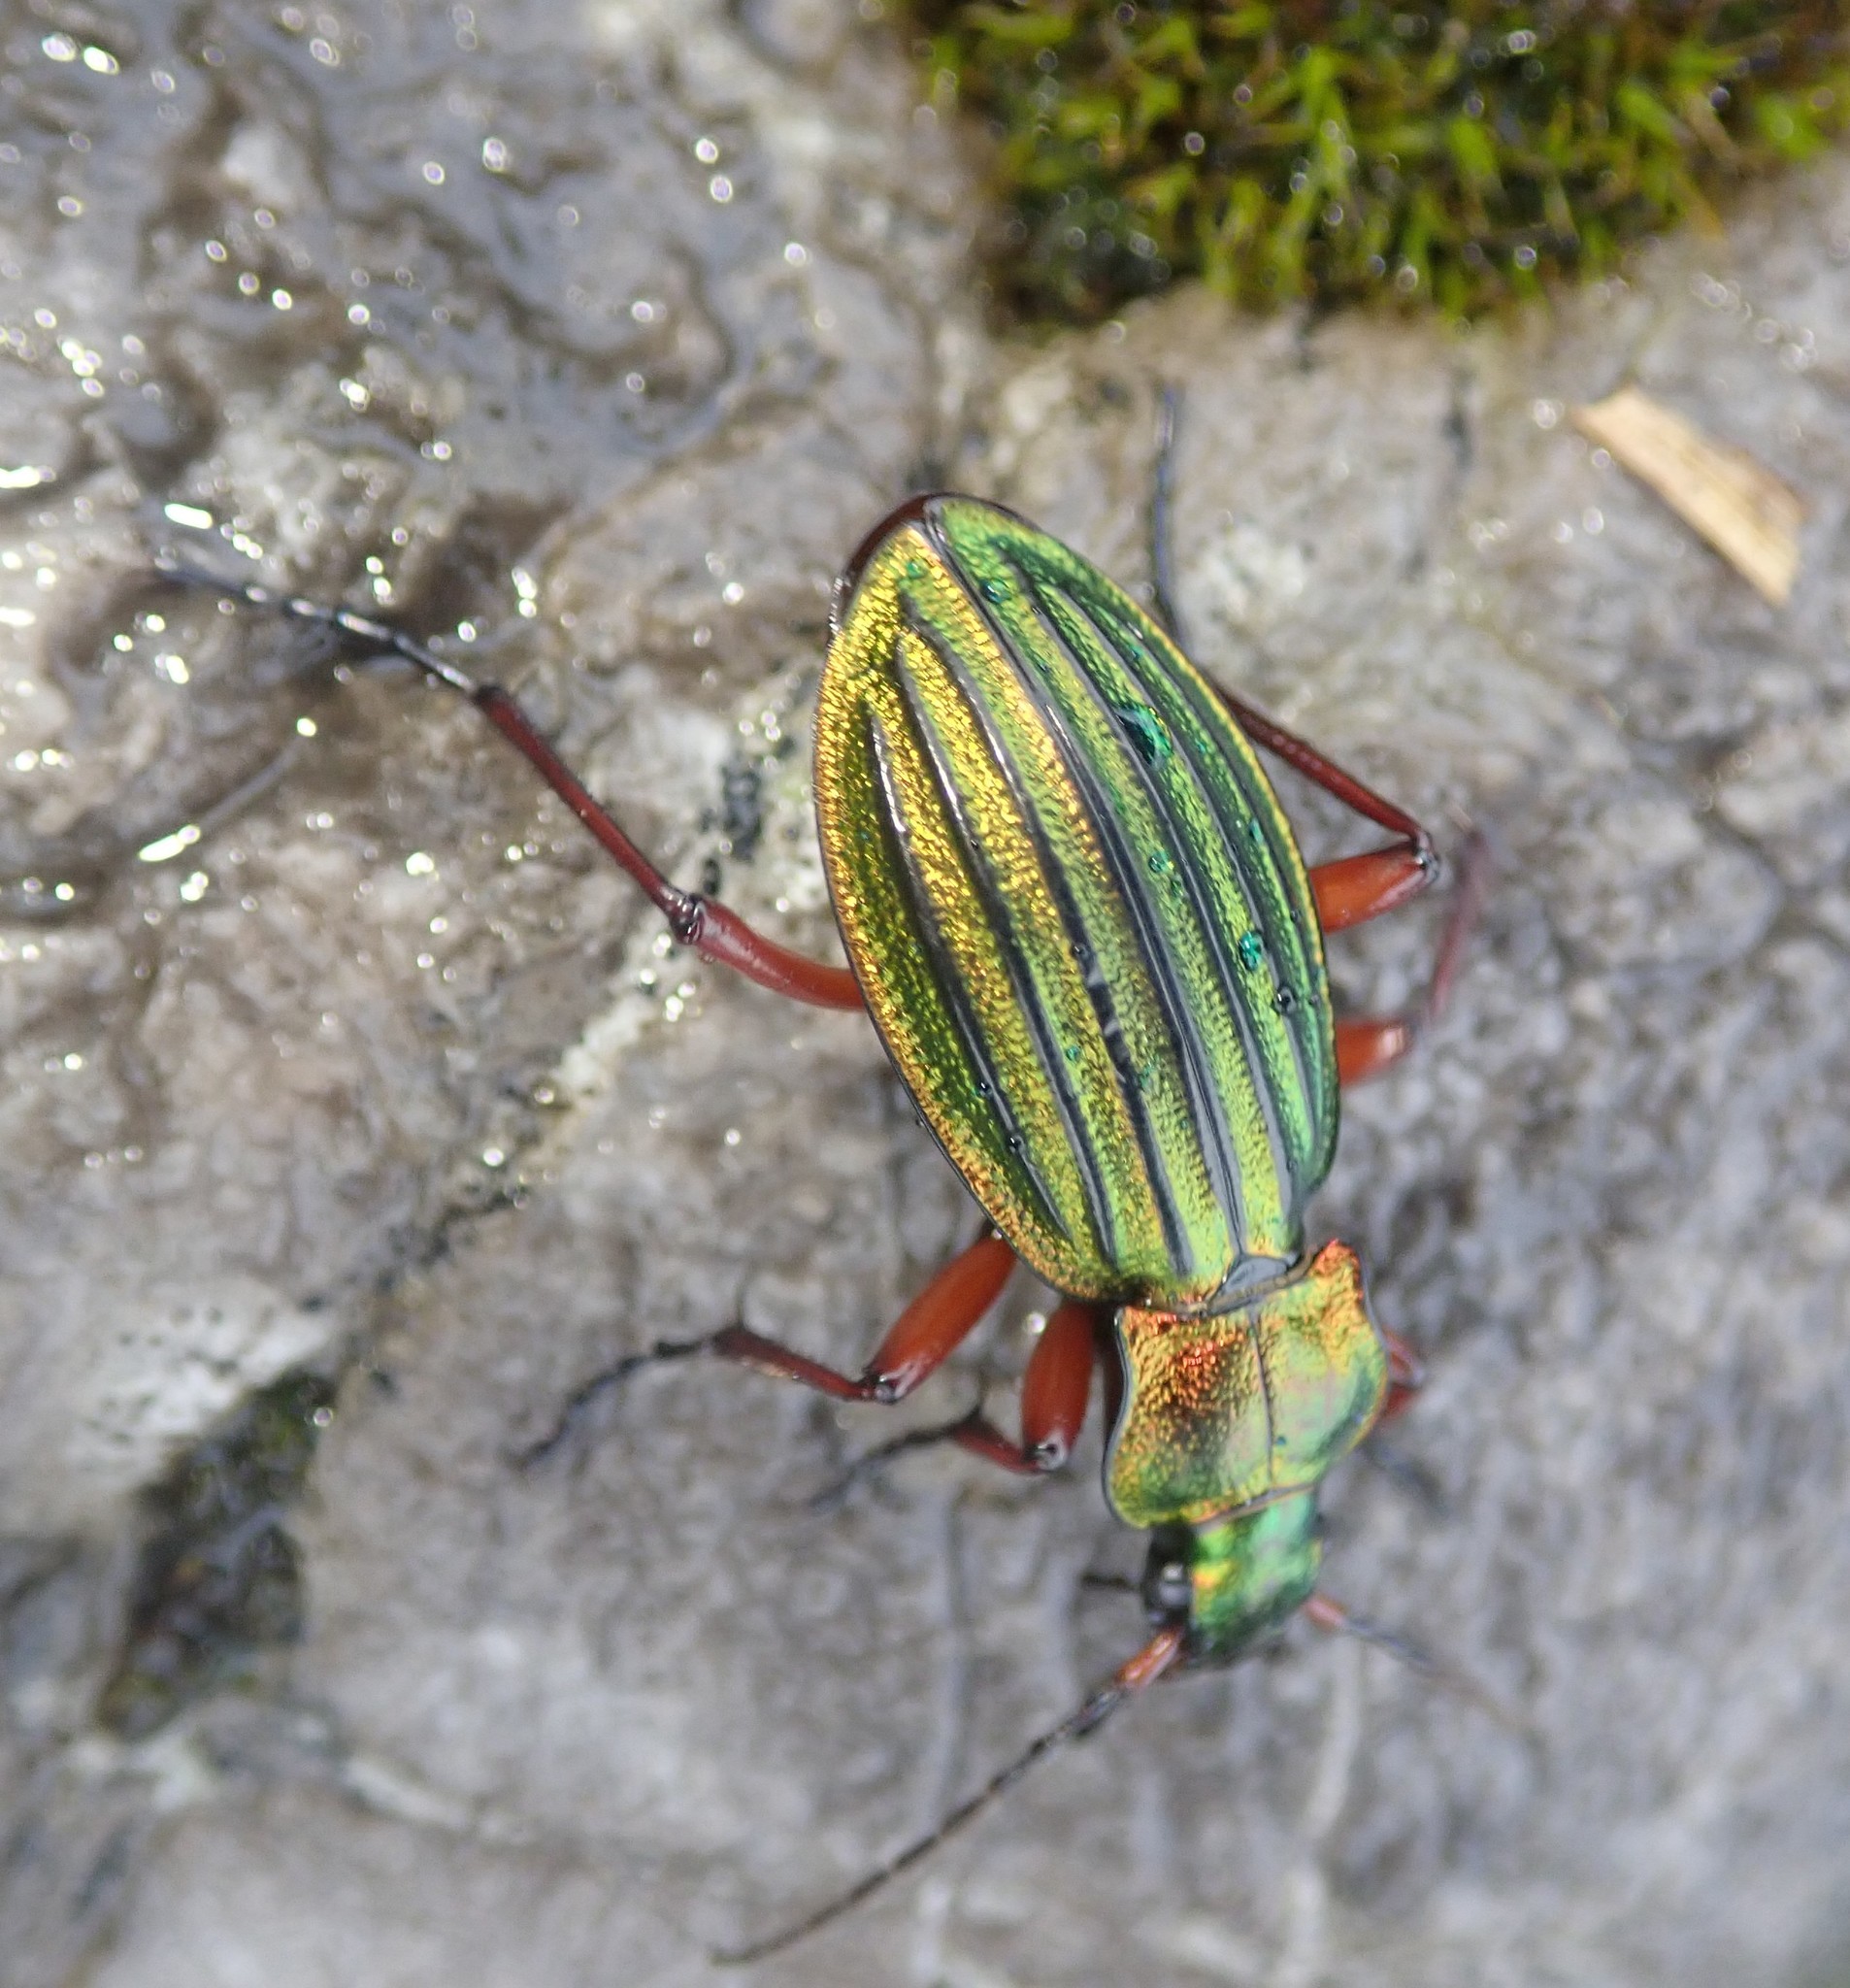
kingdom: Animalia
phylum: Arthropoda
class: Insecta
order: Coleoptera
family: Carabidae
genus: Carabus
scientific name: Carabus auronitens
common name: Carabus auronitens
